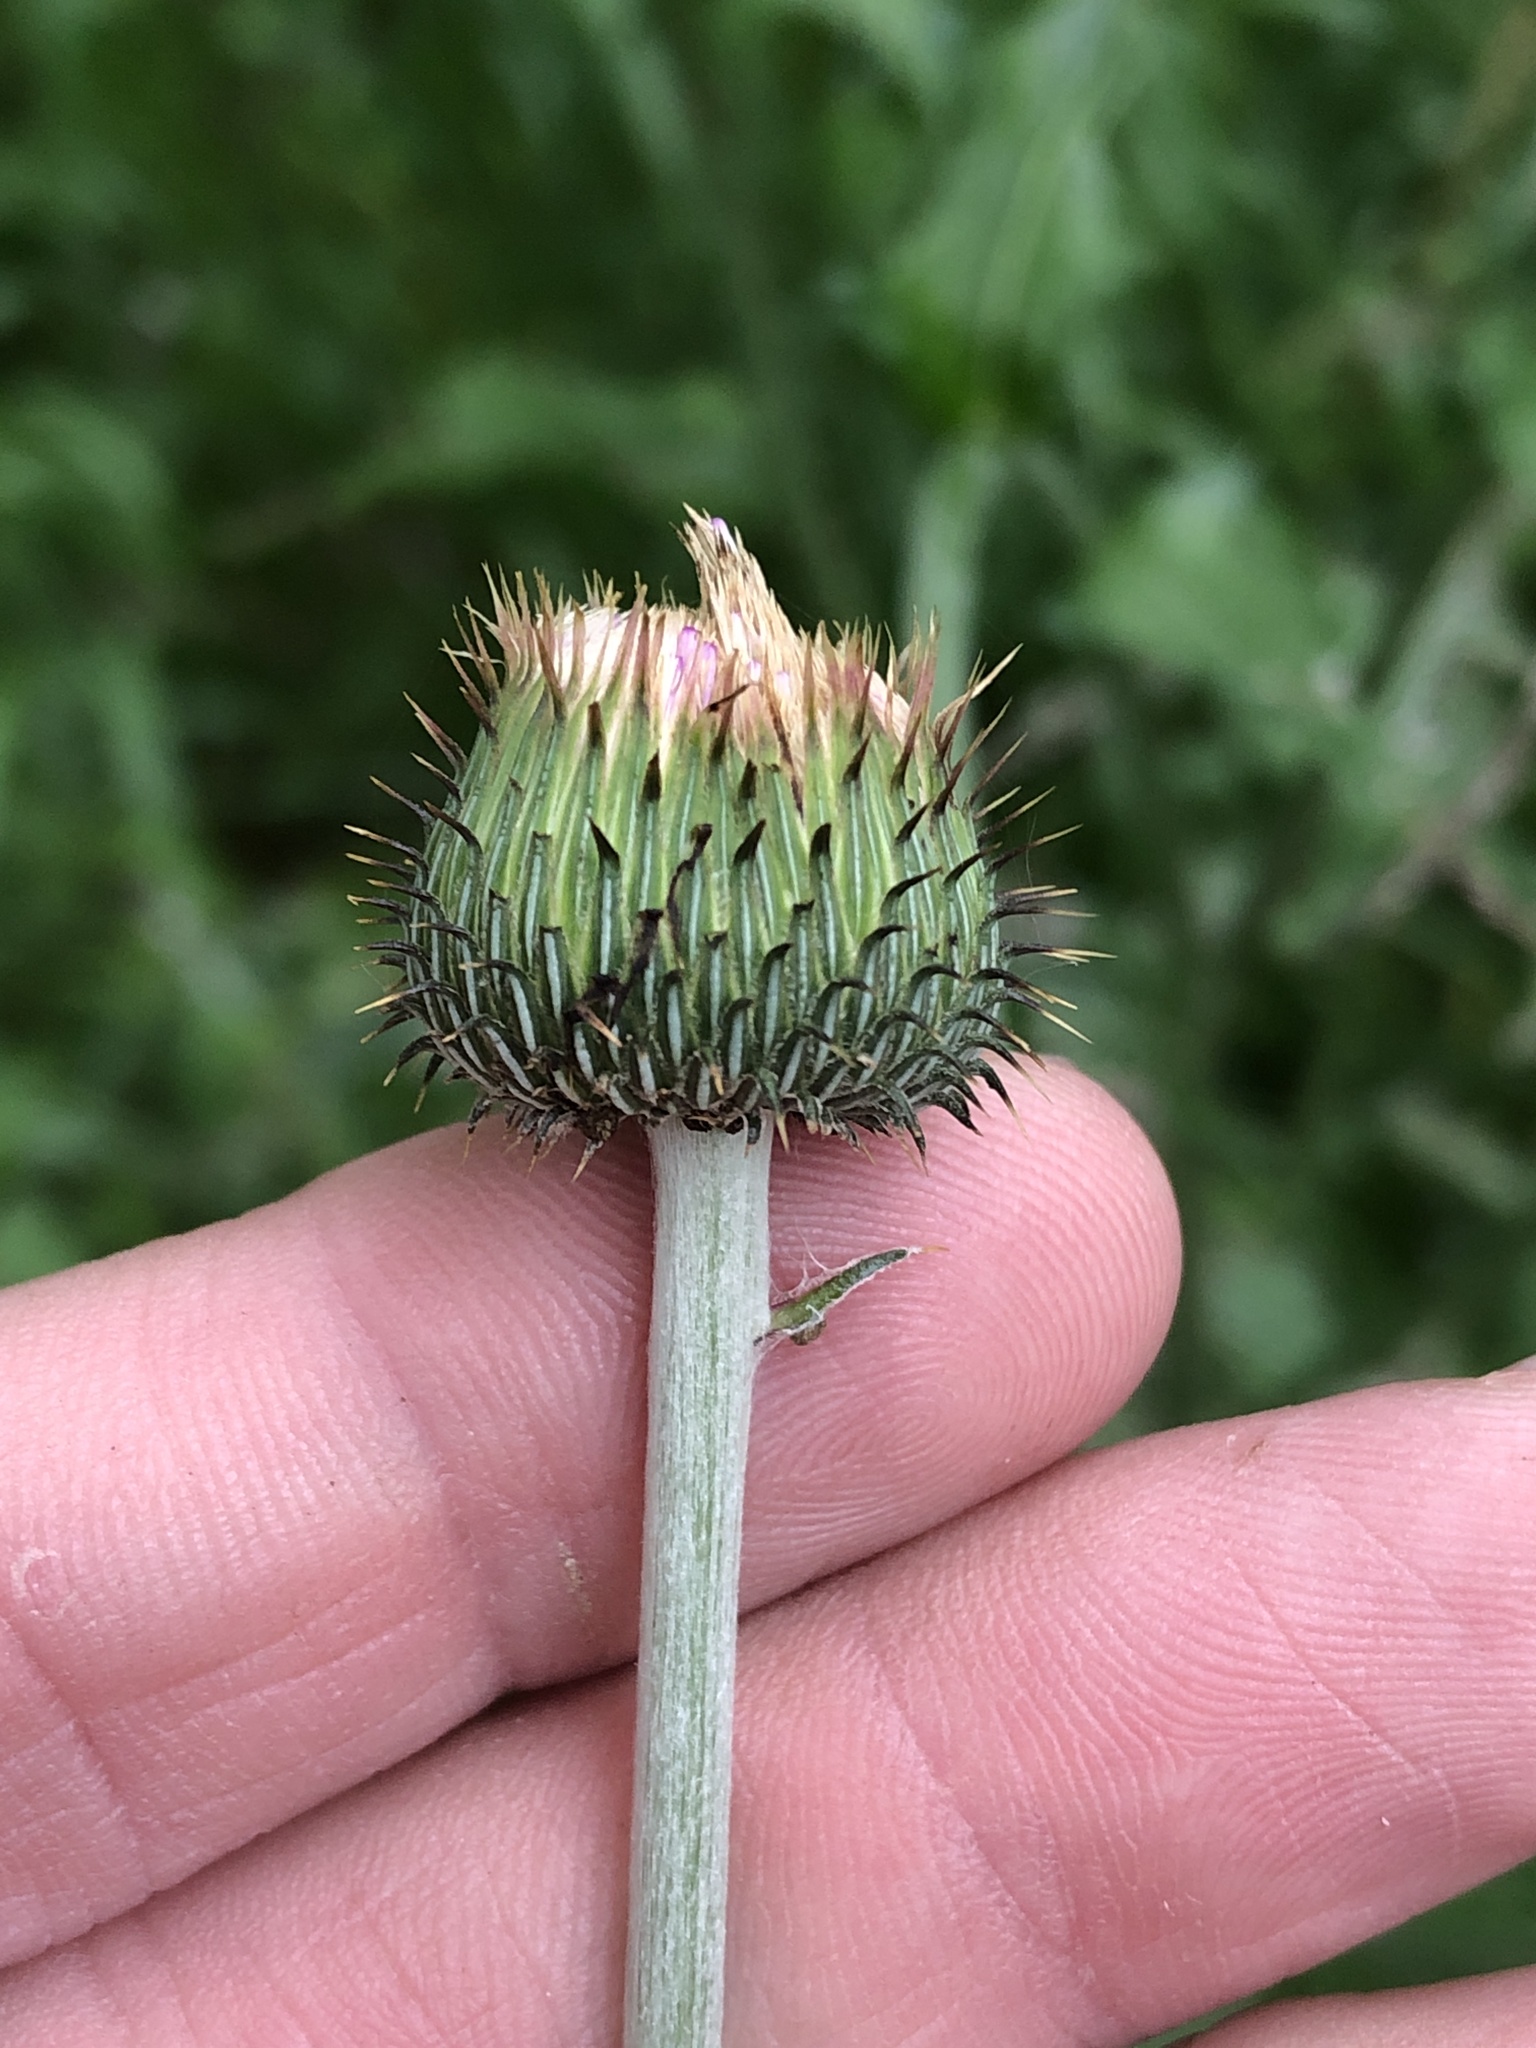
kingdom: Plantae
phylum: Tracheophyta
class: Magnoliopsida
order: Asterales
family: Asteraceae
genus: Cirsium
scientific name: Cirsium texanum
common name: Texas purple thistle
